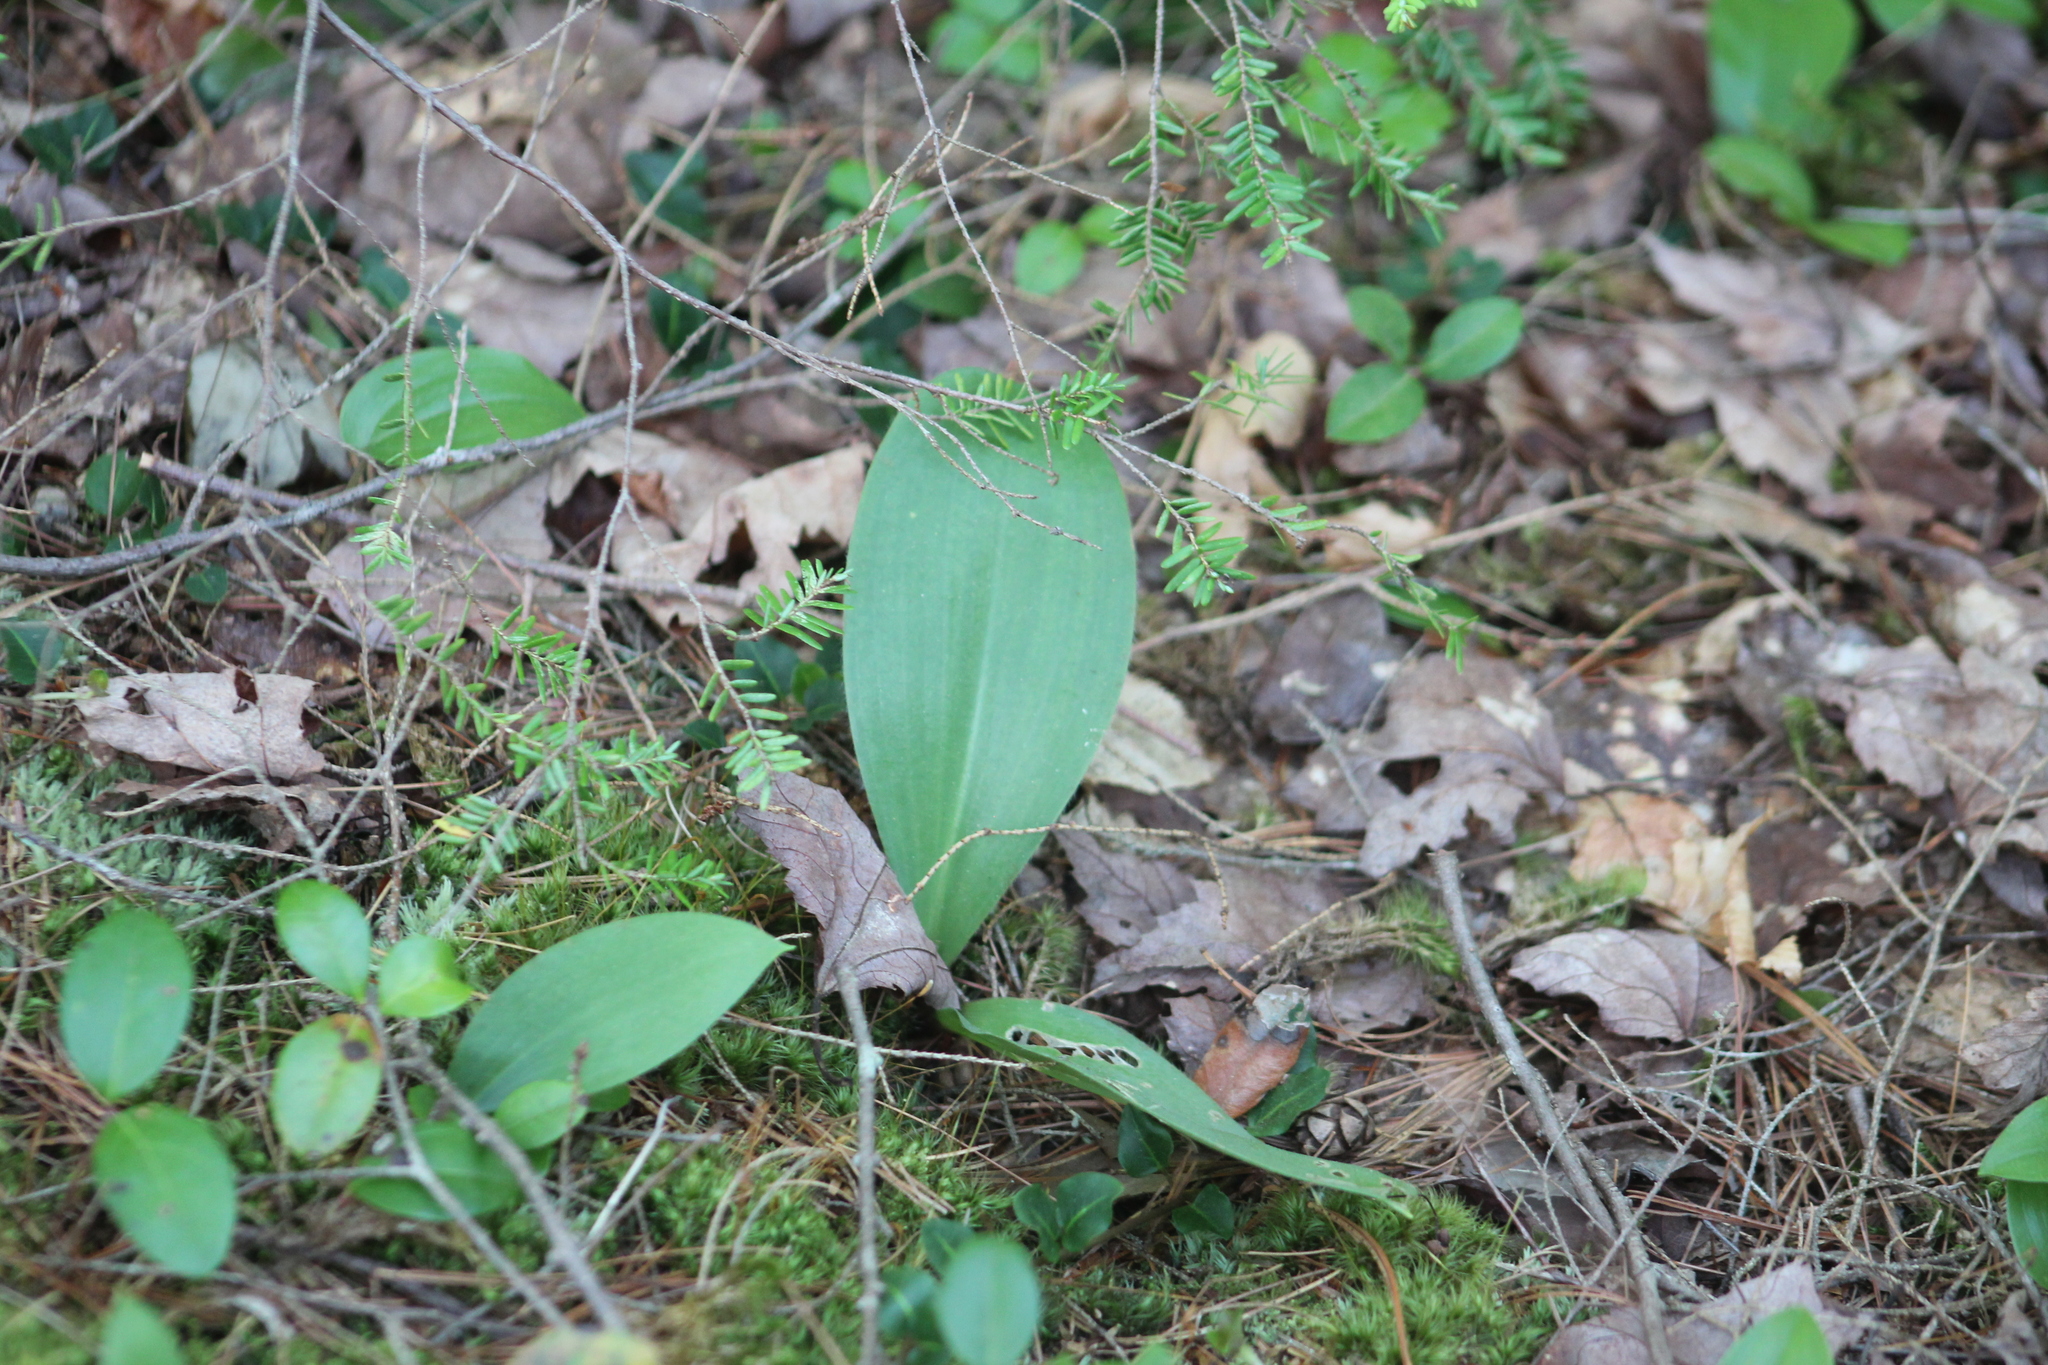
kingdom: Plantae
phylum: Tracheophyta
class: Liliopsida
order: Liliales
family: Liliaceae
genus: Clintonia
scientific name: Clintonia borealis
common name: Yellow clintonia
